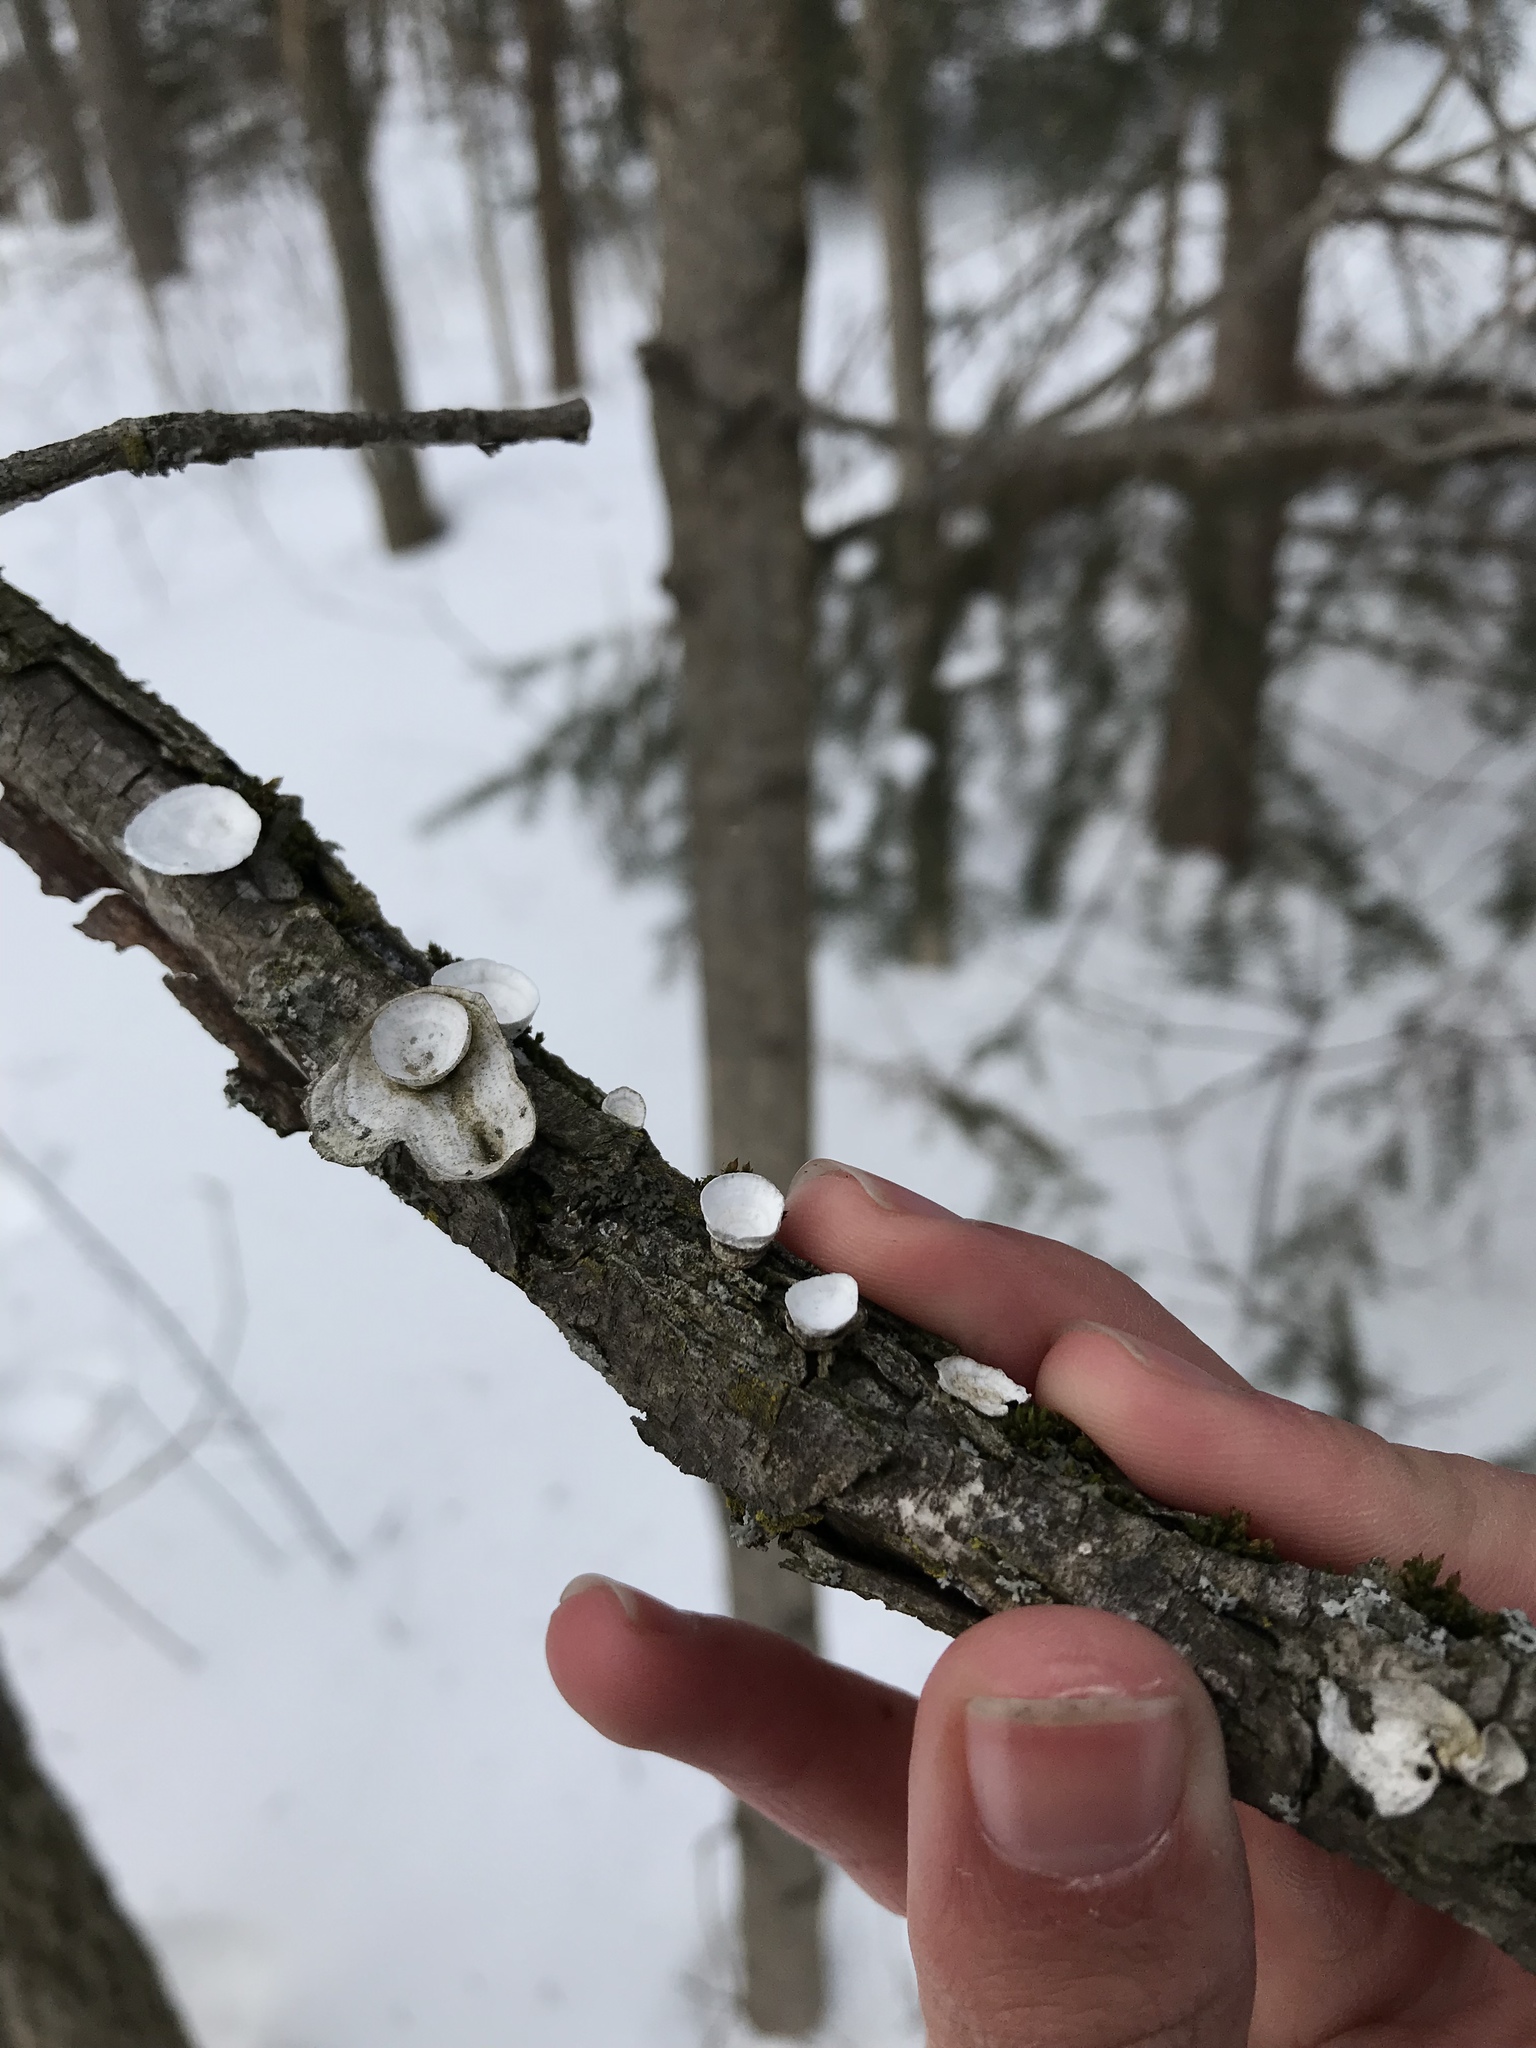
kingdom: Fungi
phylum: Basidiomycota
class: Agaricomycetes
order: Polyporales
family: Polyporaceae
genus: Poronidulus
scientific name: Poronidulus conchifer
